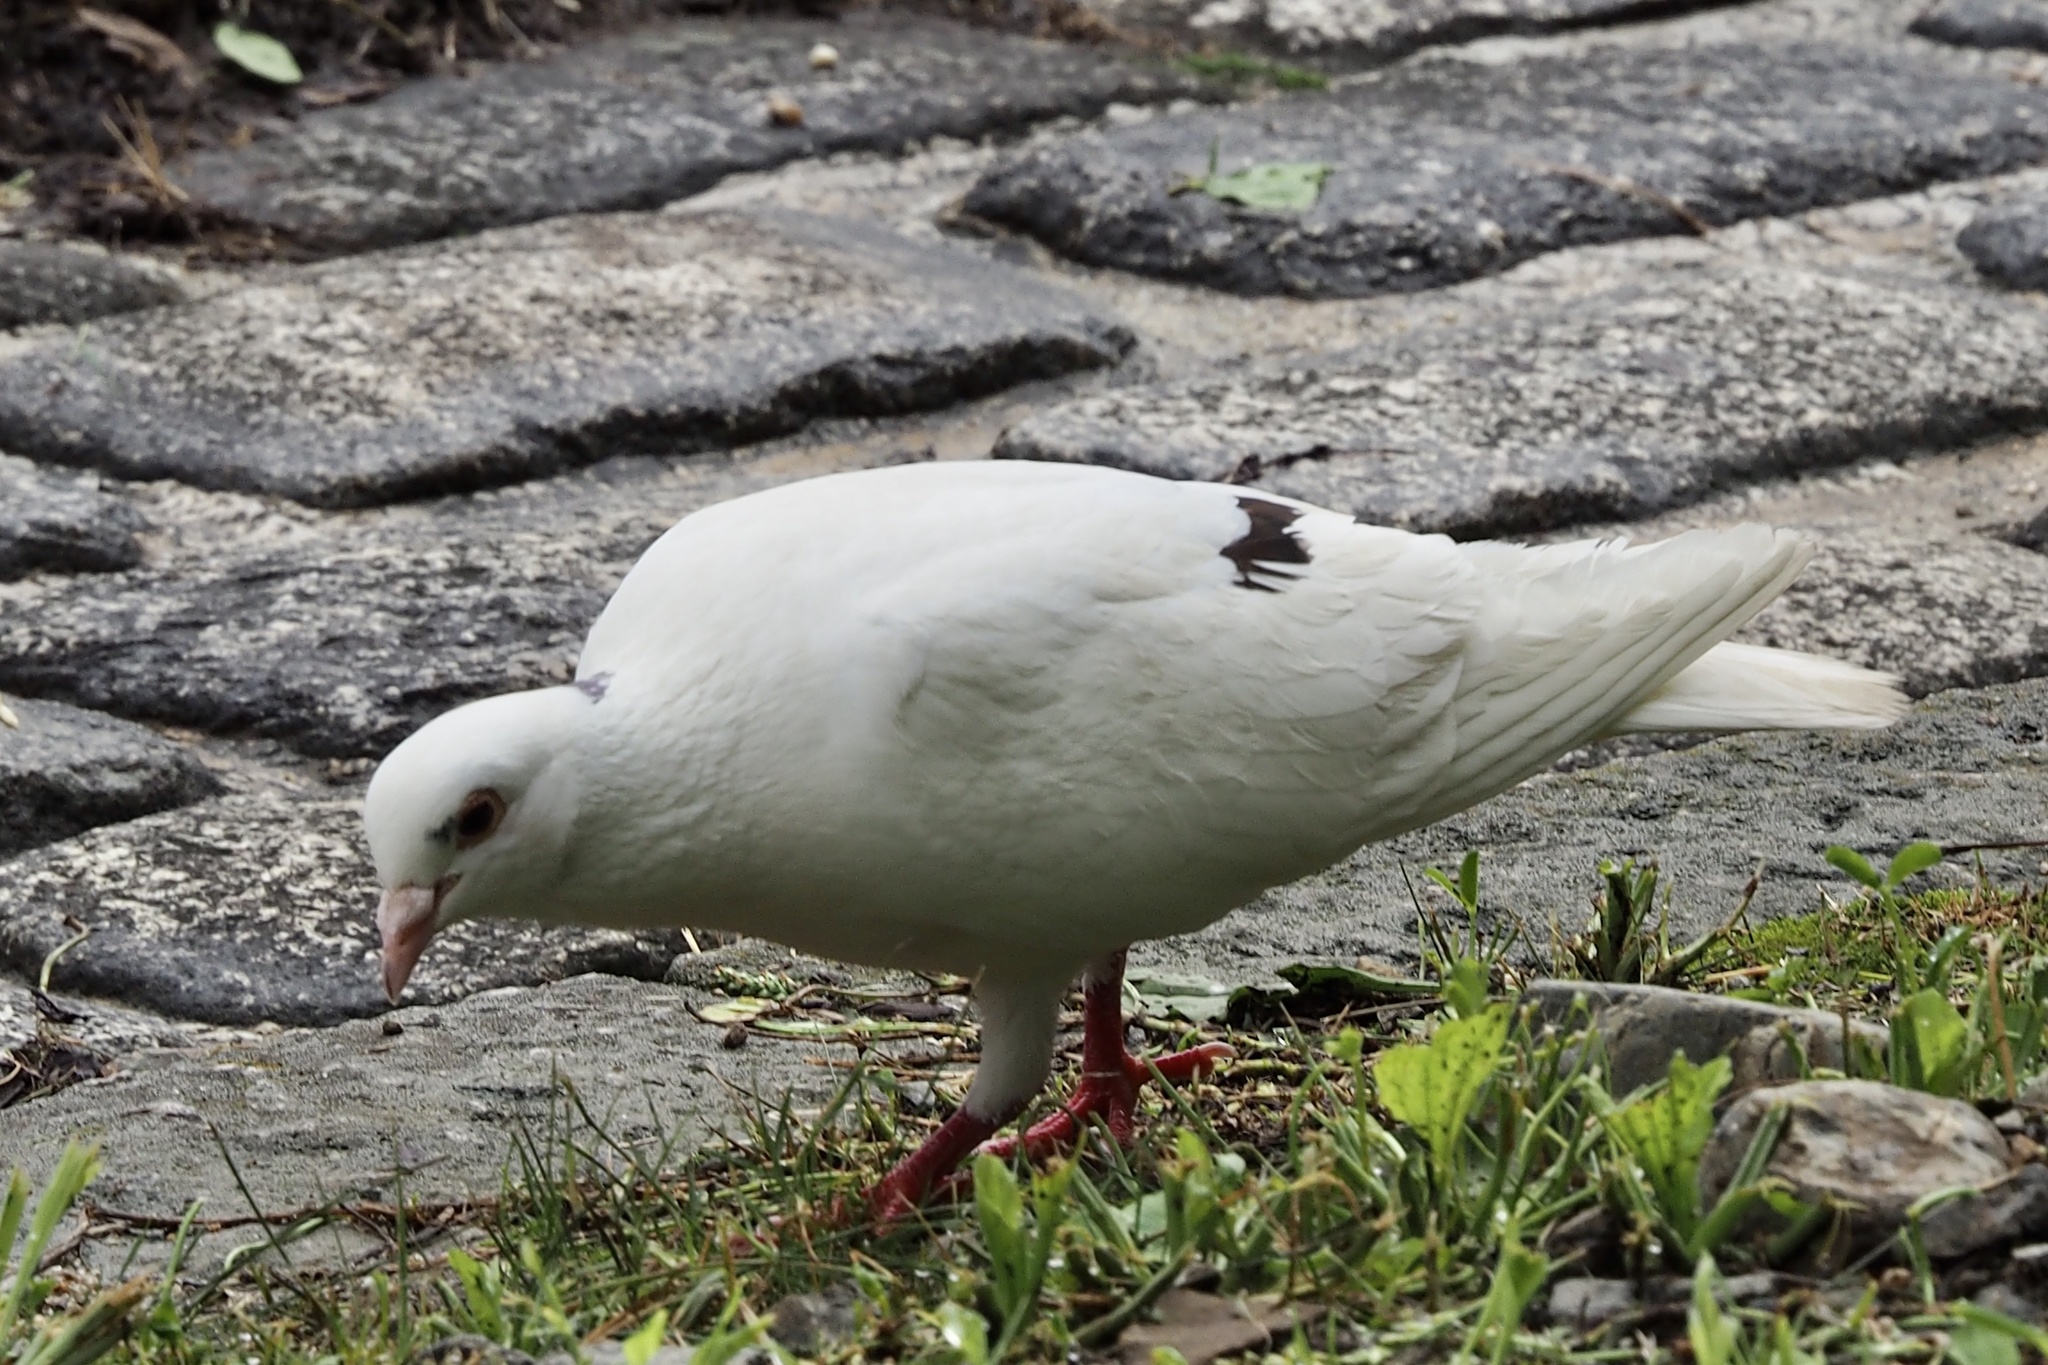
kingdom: Animalia
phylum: Chordata
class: Aves
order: Columbiformes
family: Columbidae
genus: Columba
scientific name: Columba livia
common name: Rock pigeon
